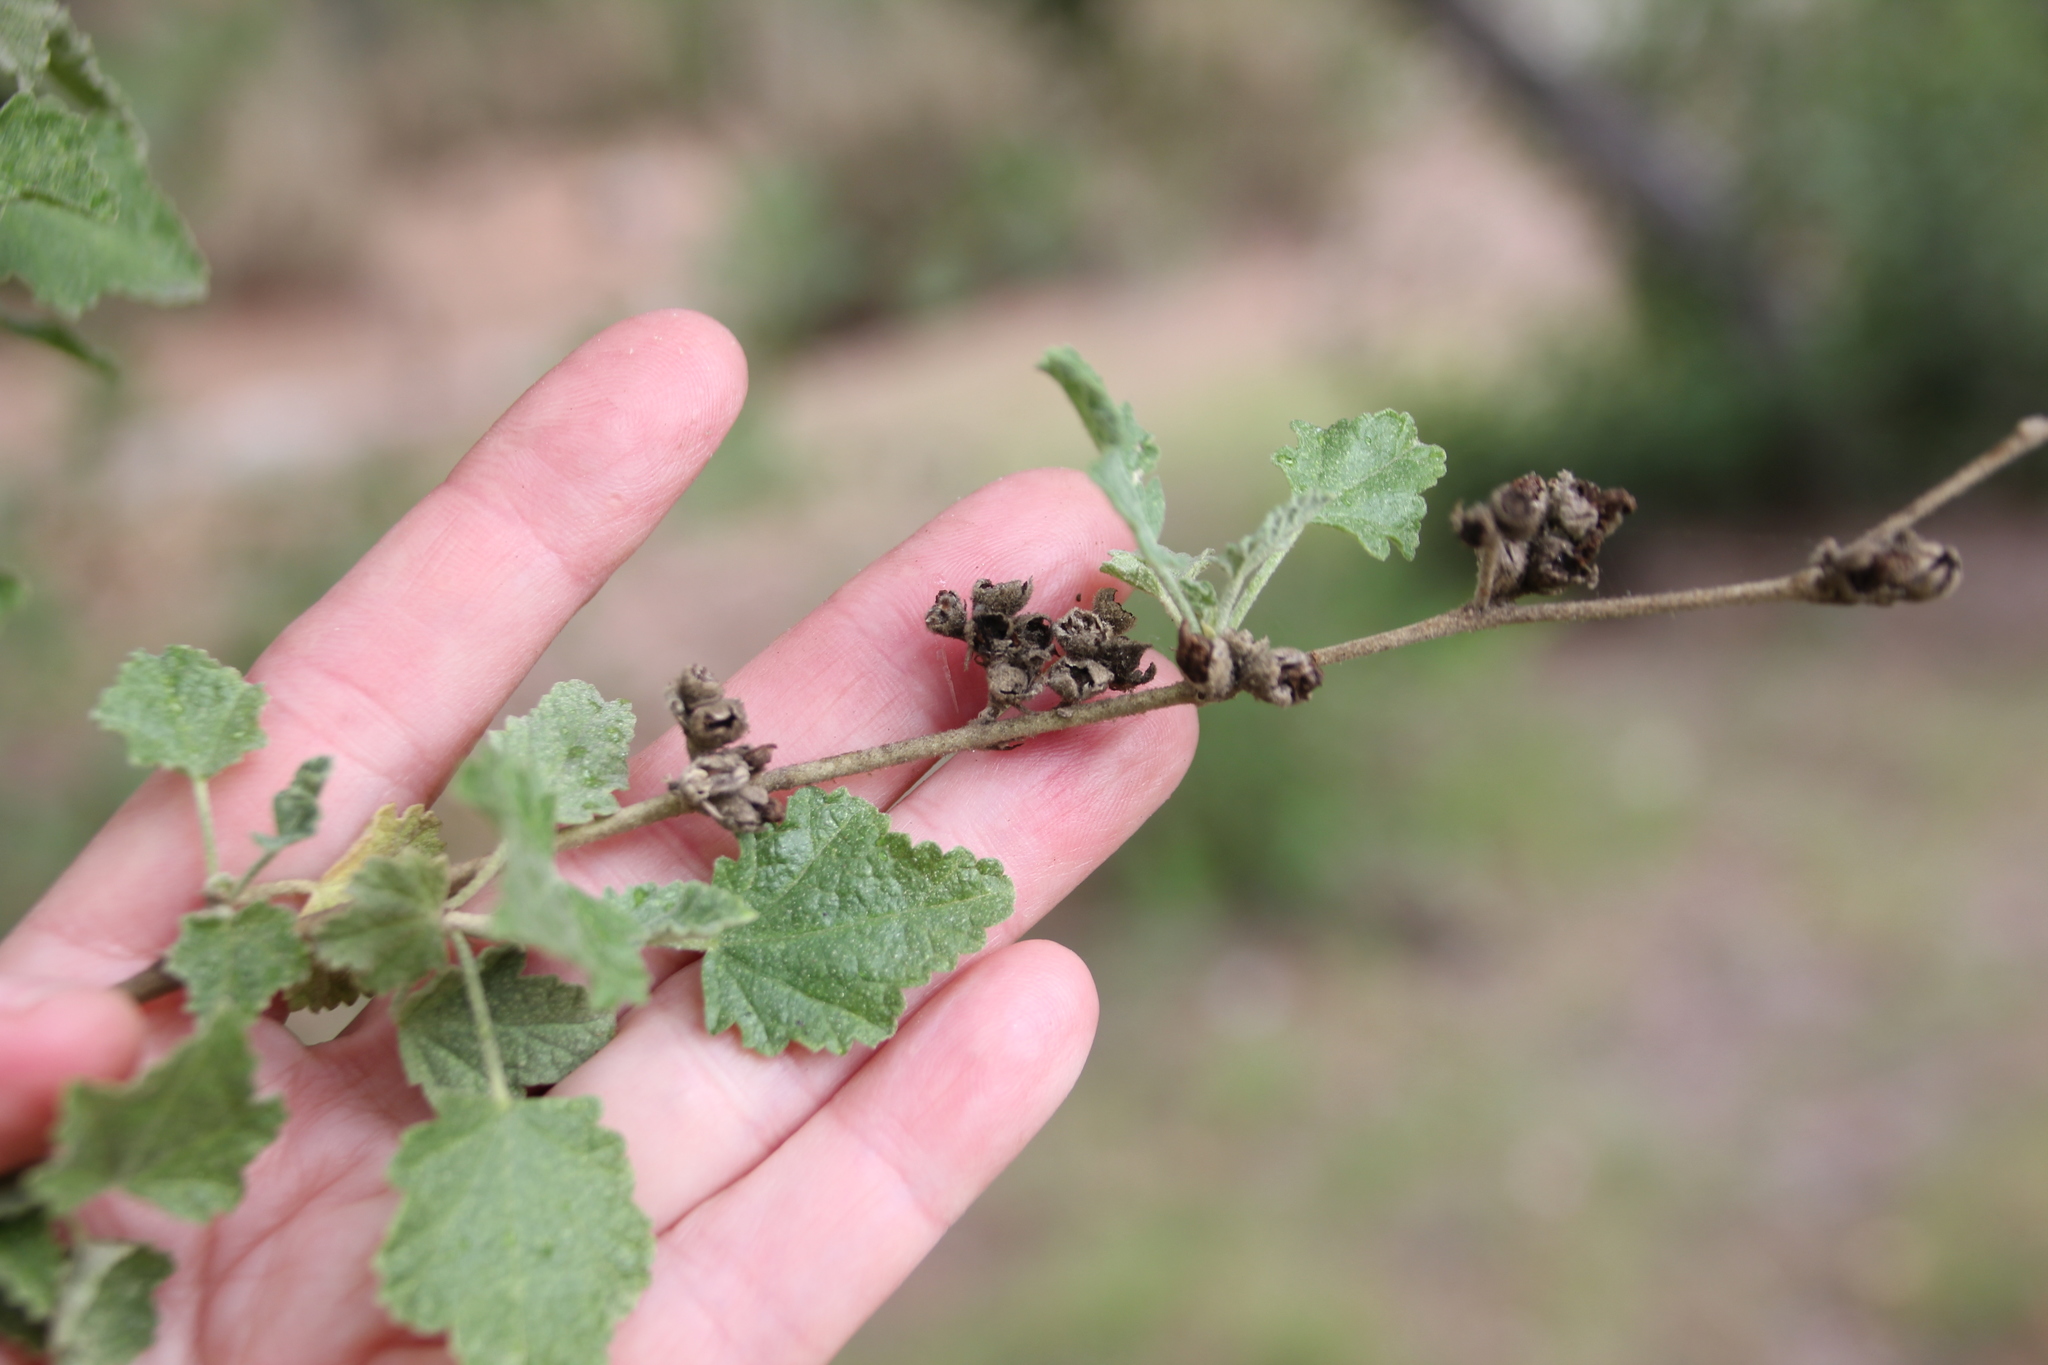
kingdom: Plantae
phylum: Tracheophyta
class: Magnoliopsida
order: Malvales
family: Malvaceae
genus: Malacothamnus
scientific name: Malacothamnus fasciculatus
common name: Sant cruz island bush-mallow
